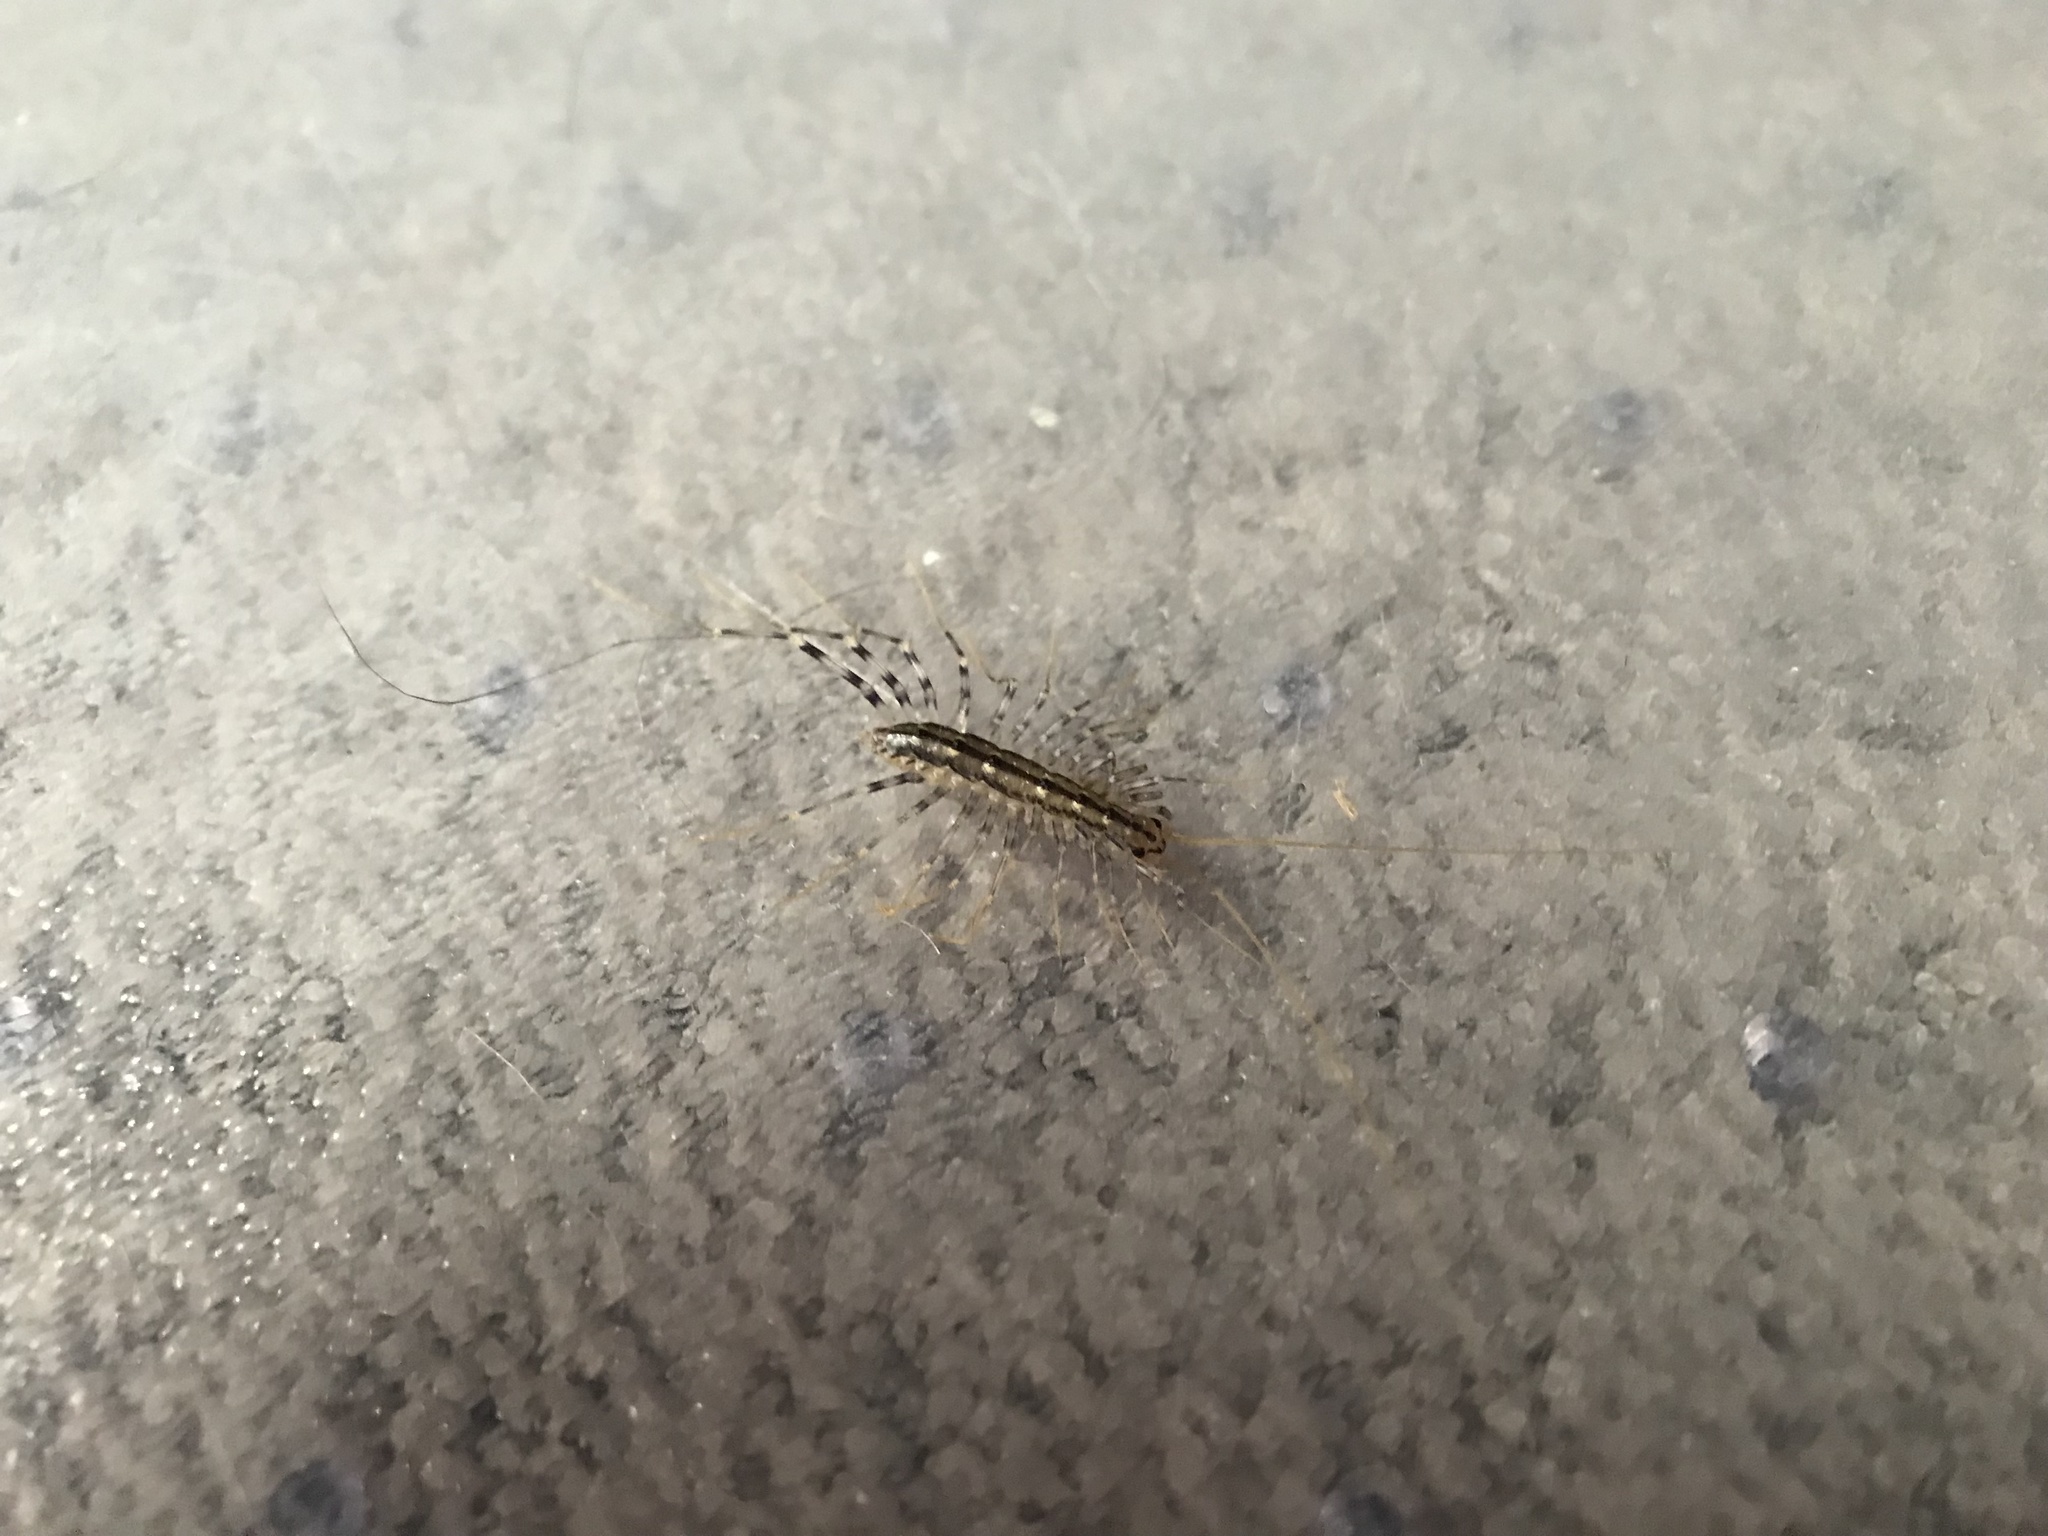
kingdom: Animalia
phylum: Arthropoda
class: Chilopoda
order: Scutigeromorpha
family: Scutigeridae
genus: Scutigera
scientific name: Scutigera coleoptrata
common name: House centipede
